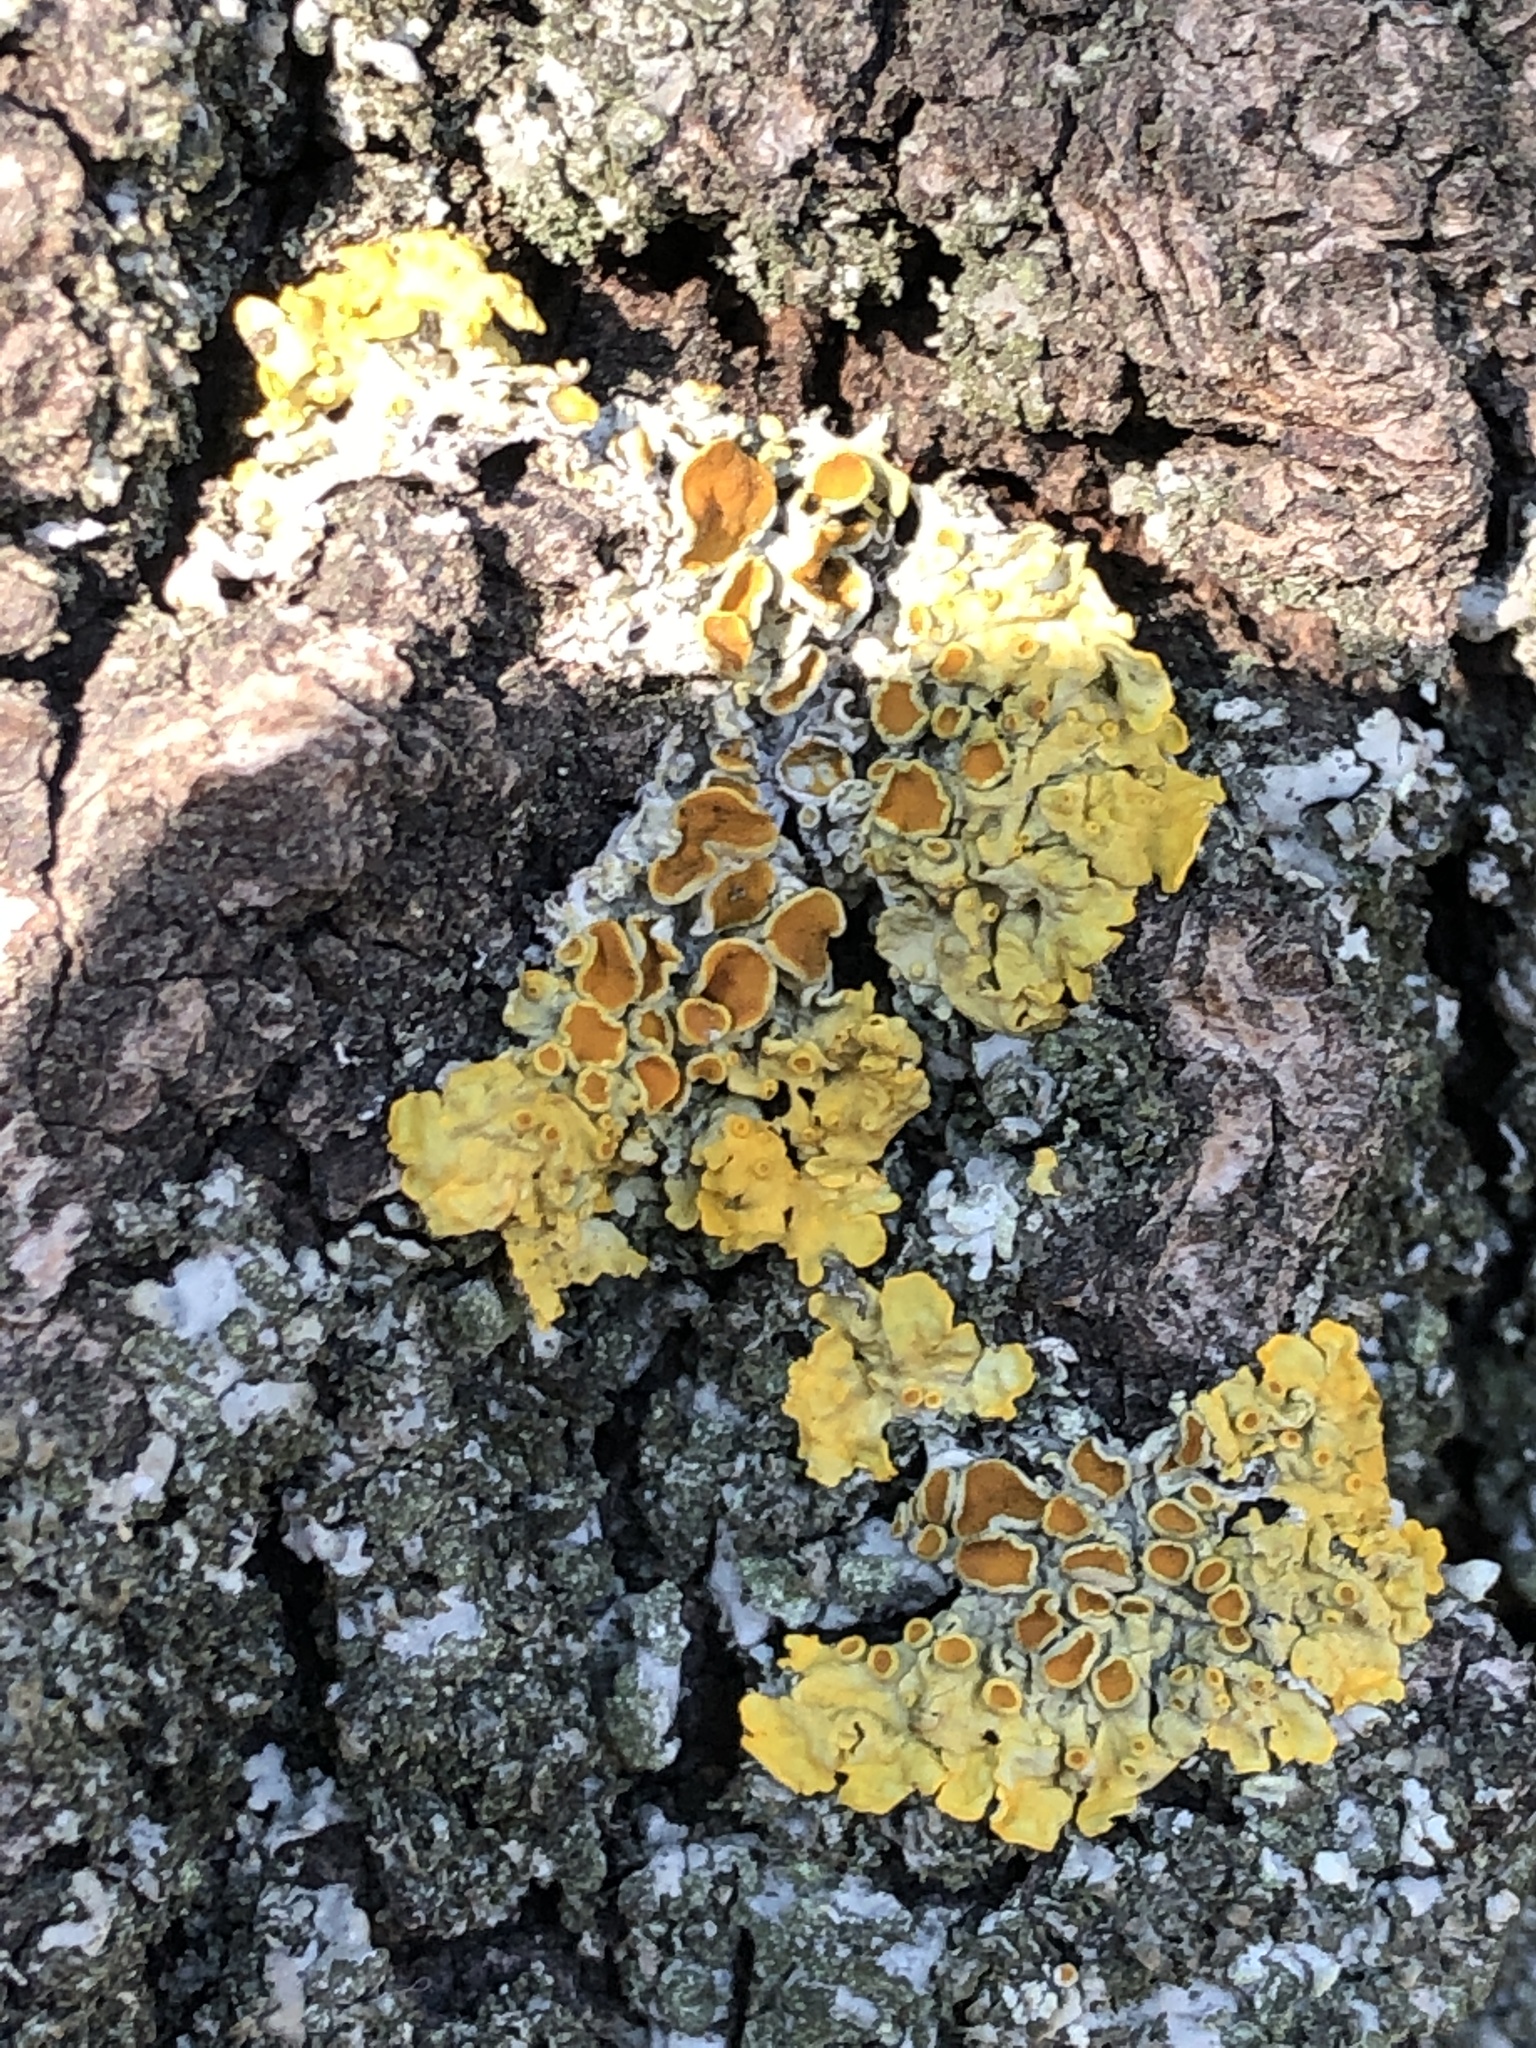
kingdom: Fungi
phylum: Ascomycota
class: Lecanoromycetes
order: Teloschistales
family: Teloschistaceae
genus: Xanthoria
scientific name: Xanthoria parietina
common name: Common orange lichen
